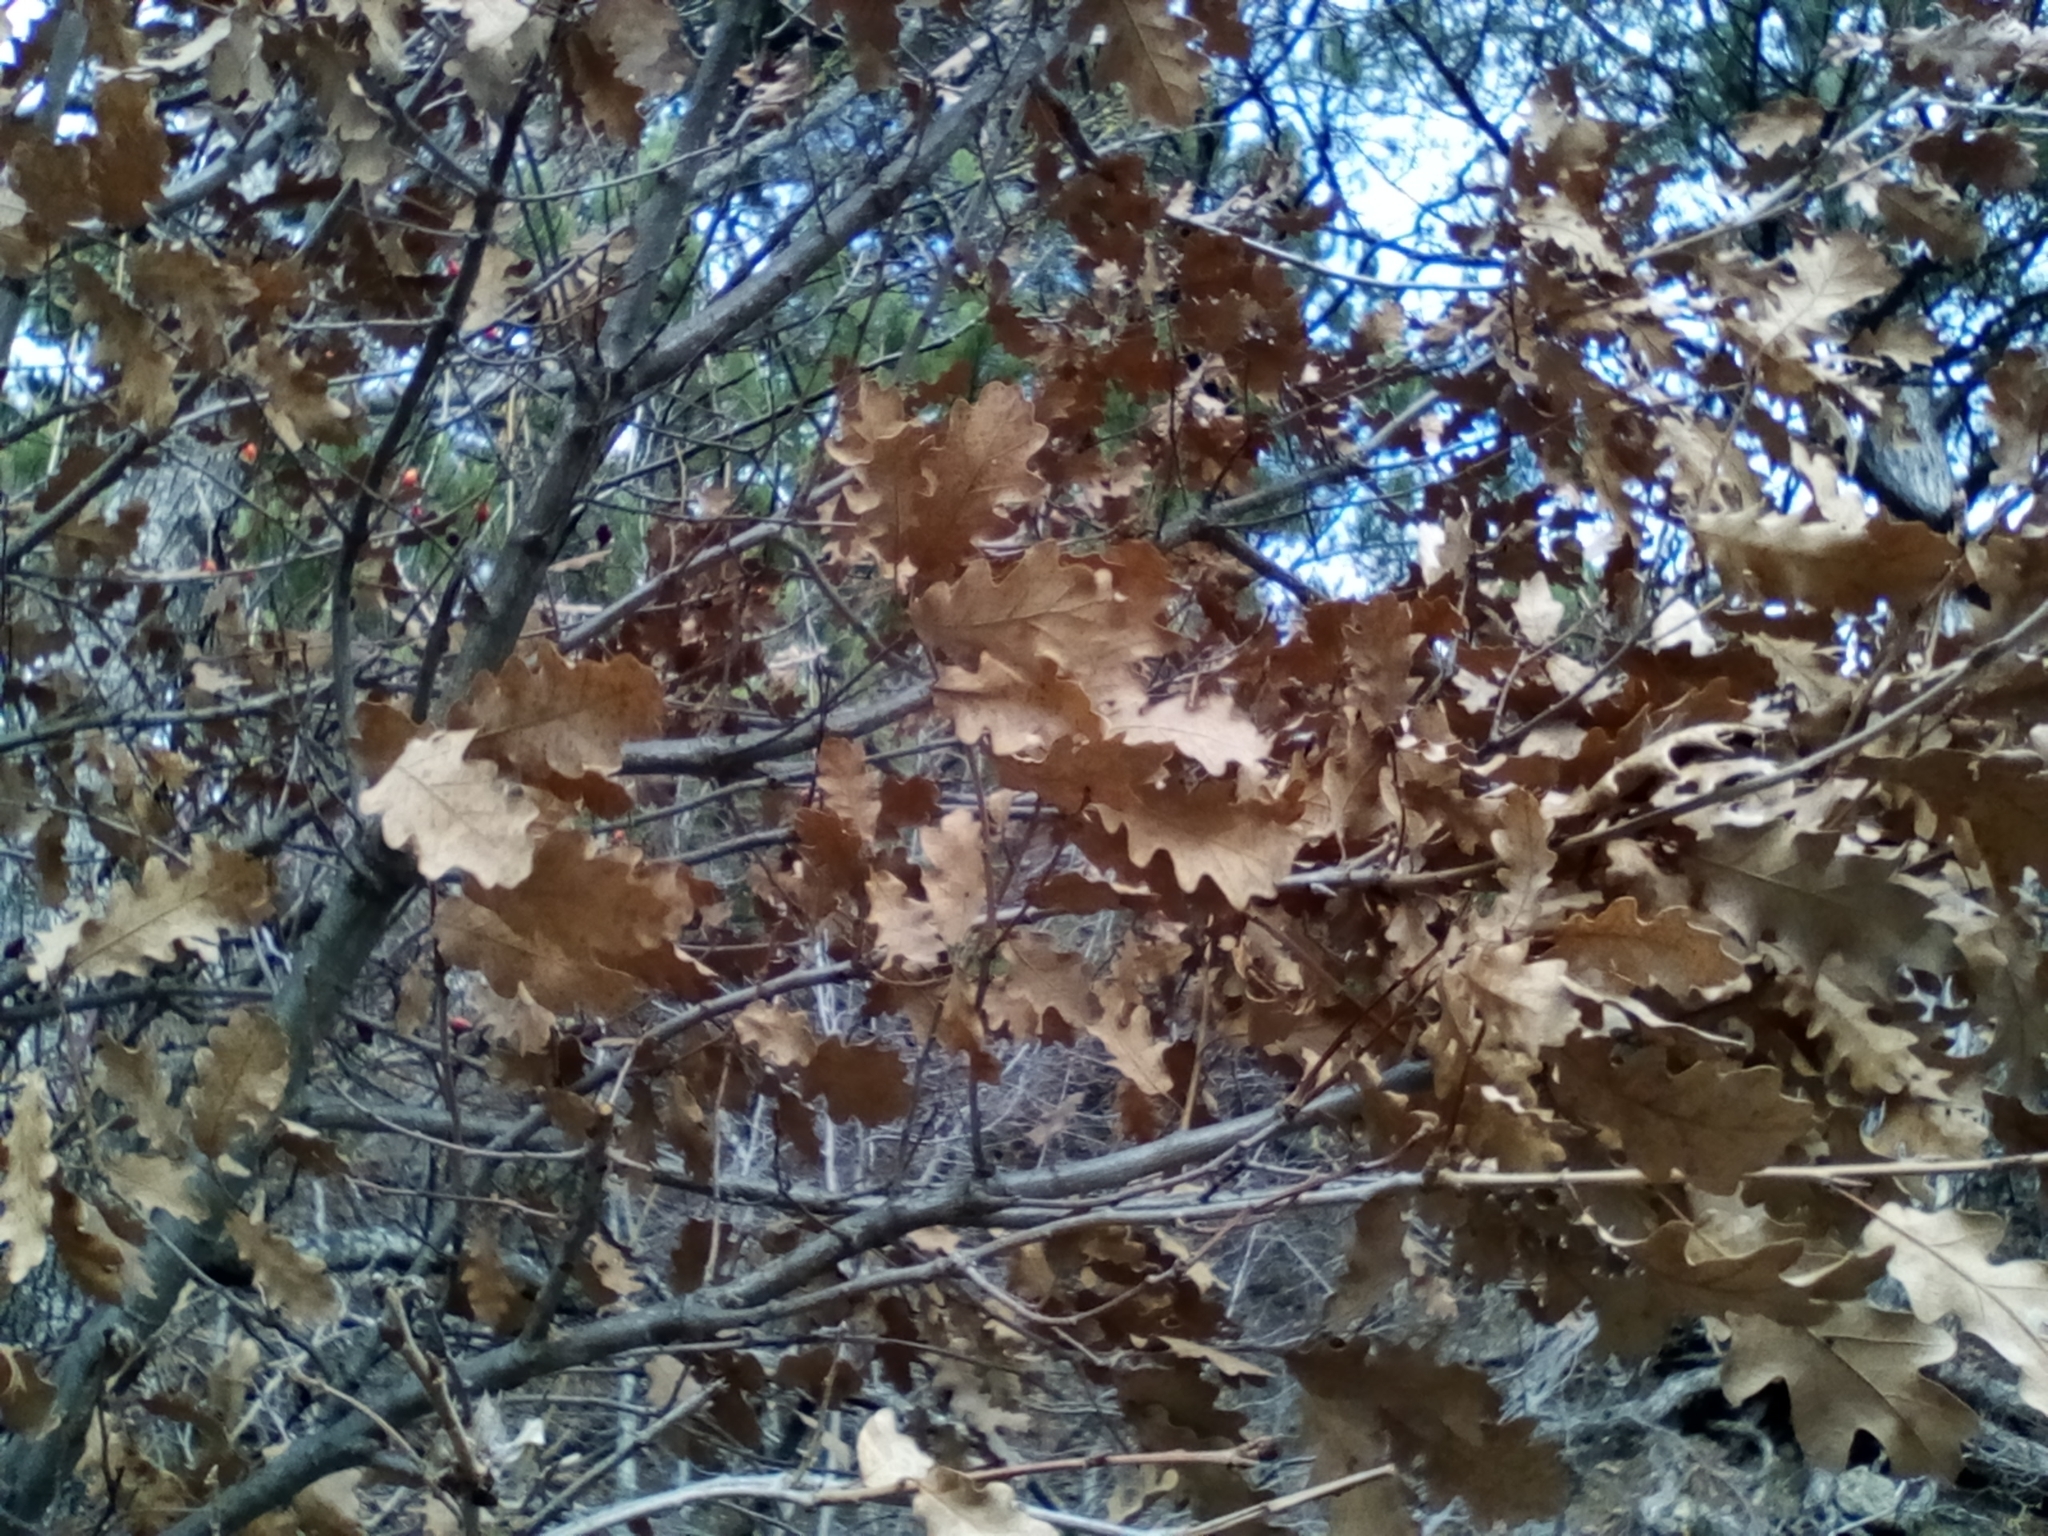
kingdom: Plantae
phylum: Tracheophyta
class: Magnoliopsida
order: Fagales
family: Fagaceae
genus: Quercus
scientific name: Quercus pubescens
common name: Downy oak
